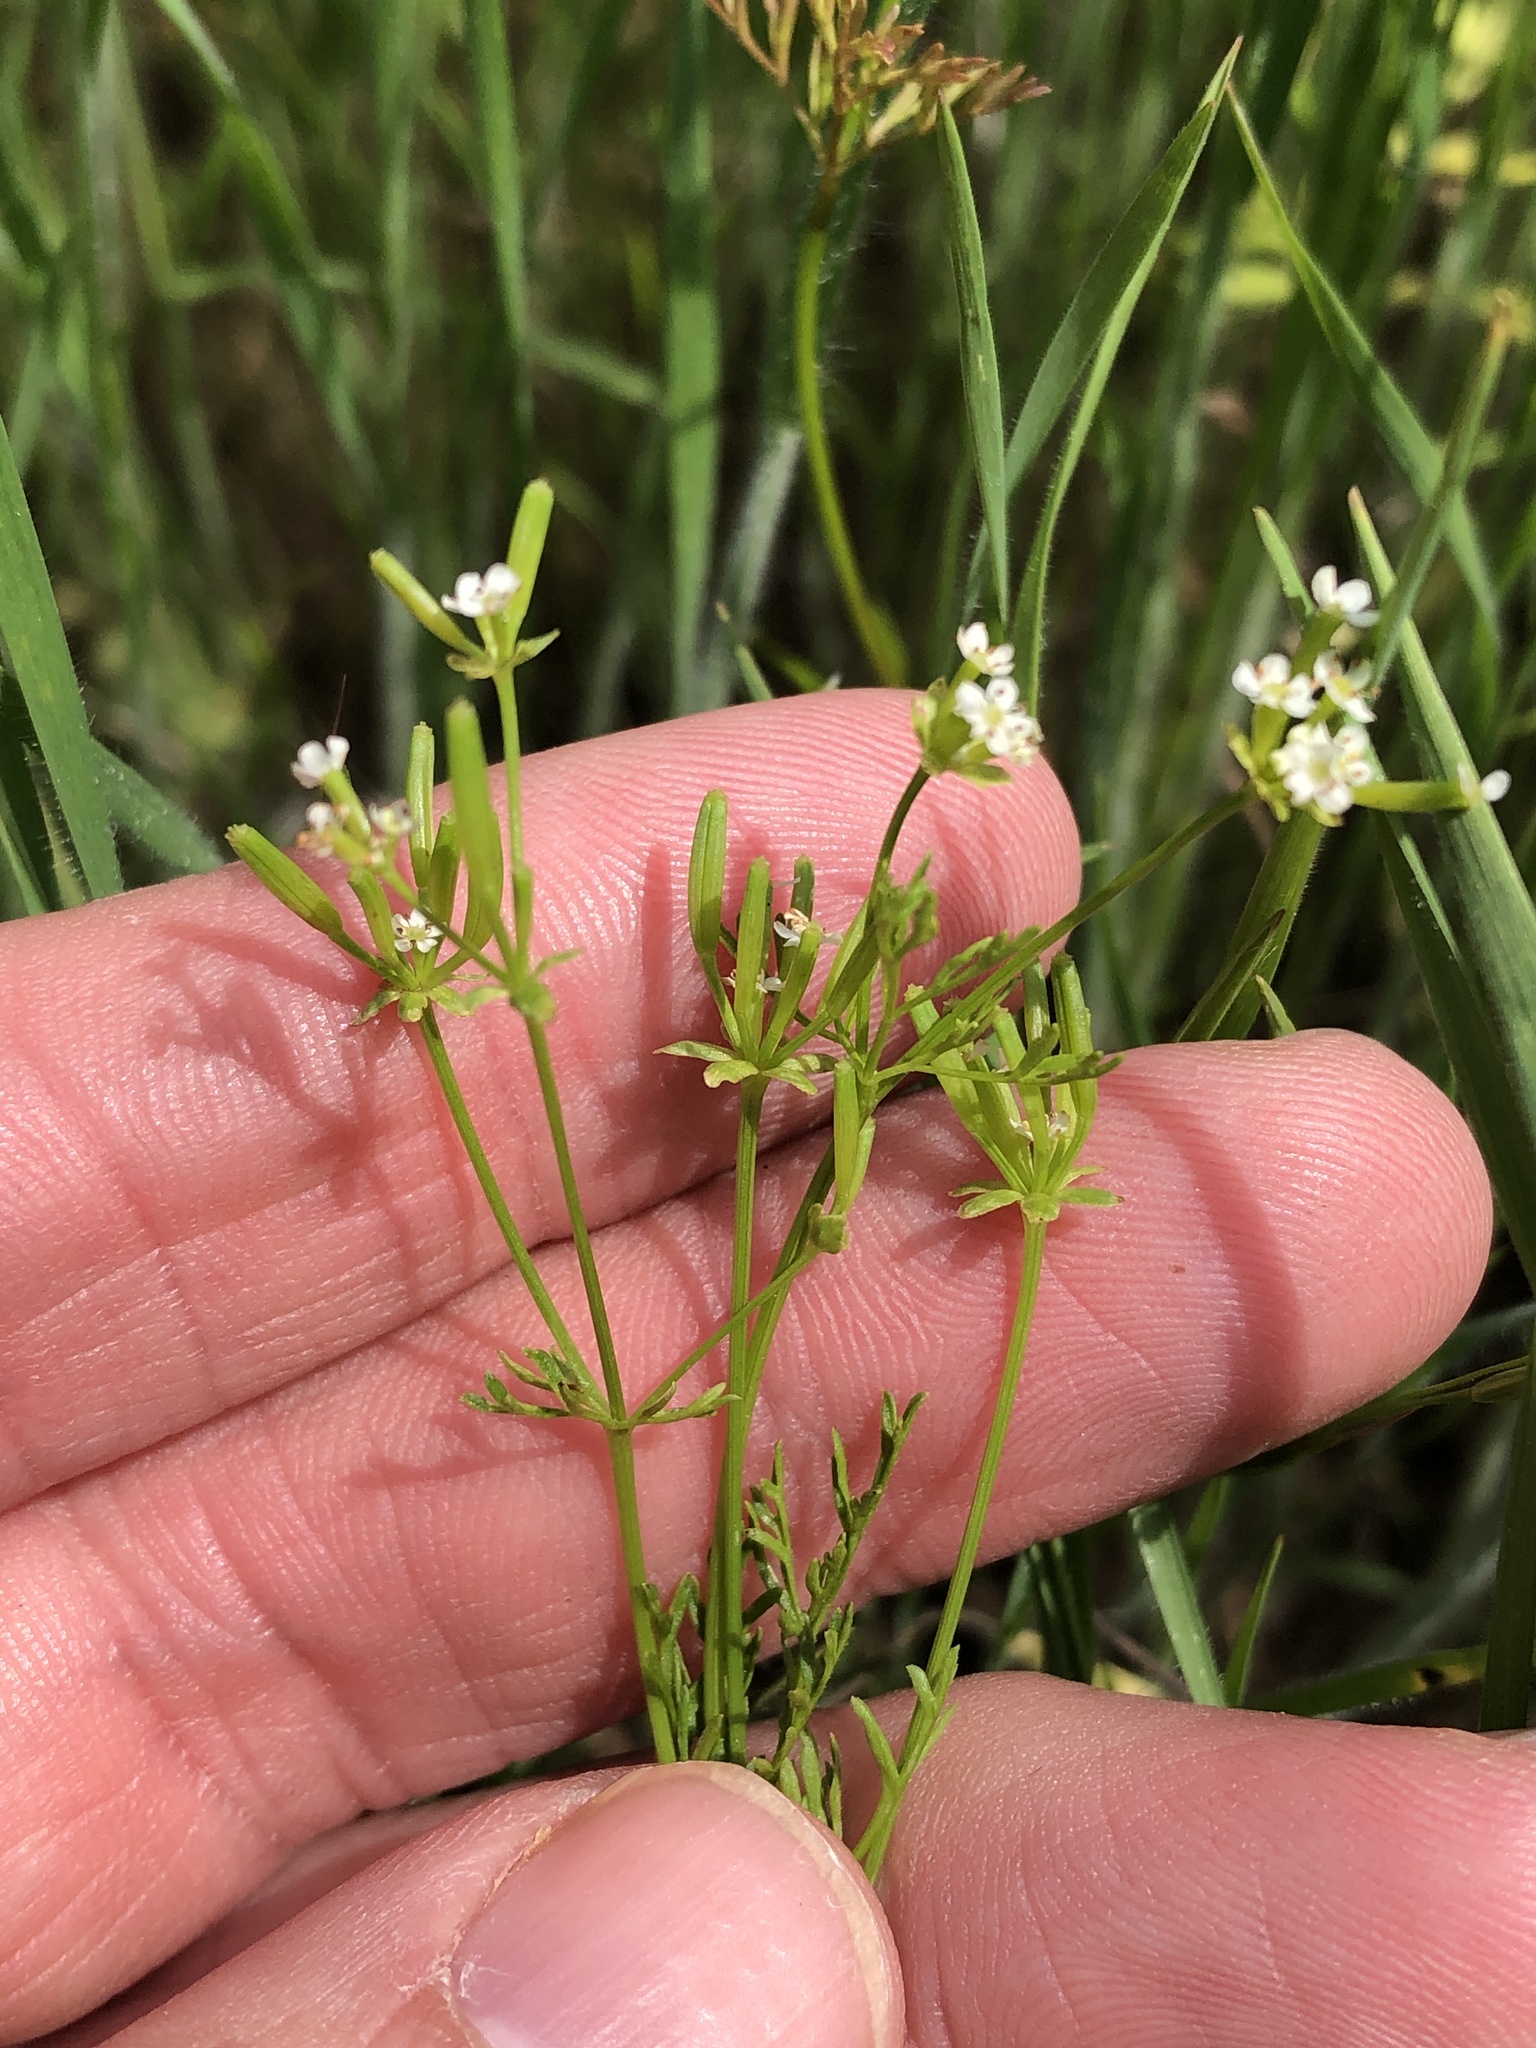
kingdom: Plantae
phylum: Tracheophyta
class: Magnoliopsida
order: Apiales
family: Apiaceae
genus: Chaerophyllum
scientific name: Chaerophyllum tainturieri
